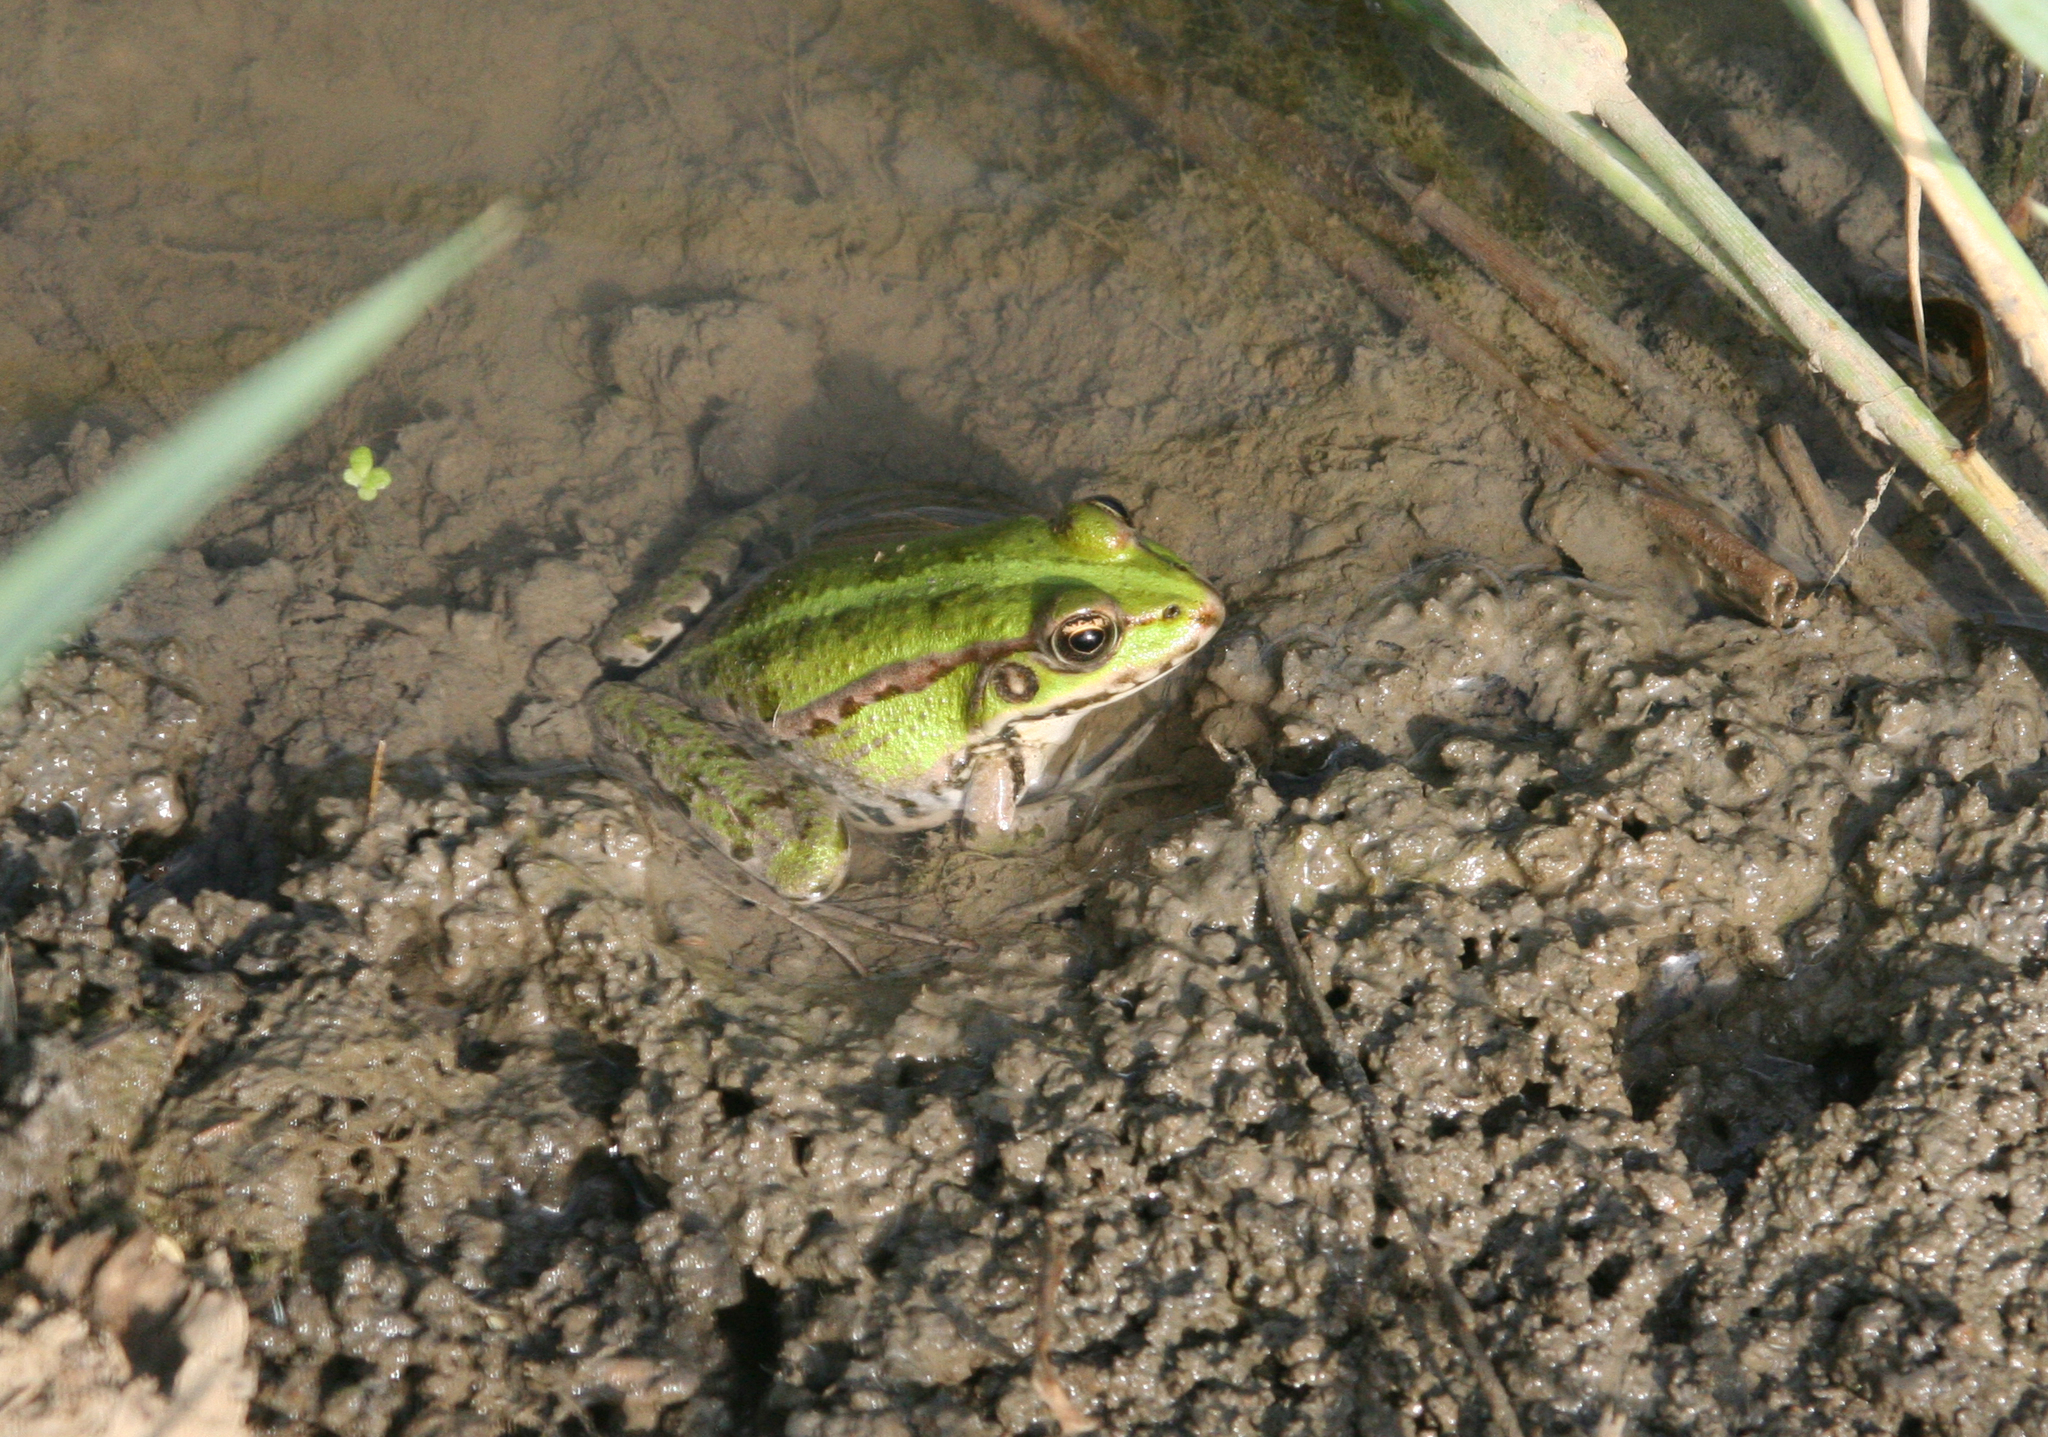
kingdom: Animalia
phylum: Chordata
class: Amphibia
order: Anura
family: Ranidae
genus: Pelophylax
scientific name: Pelophylax ridibundus
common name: Marsh frog
